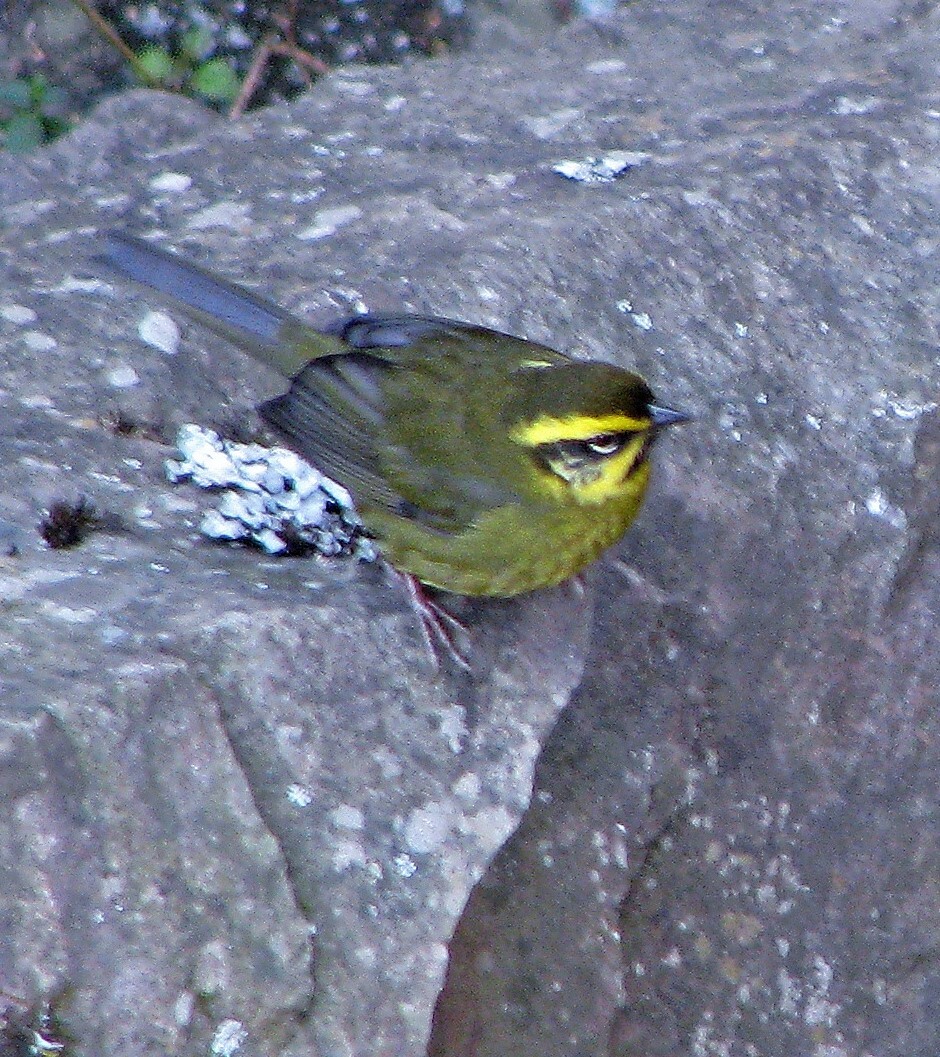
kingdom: Animalia
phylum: Chordata
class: Aves
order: Passeriformes
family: Passerellidae
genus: Atlapetes
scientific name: Atlapetes citrinellus
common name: Yellow-striped brushfinch
